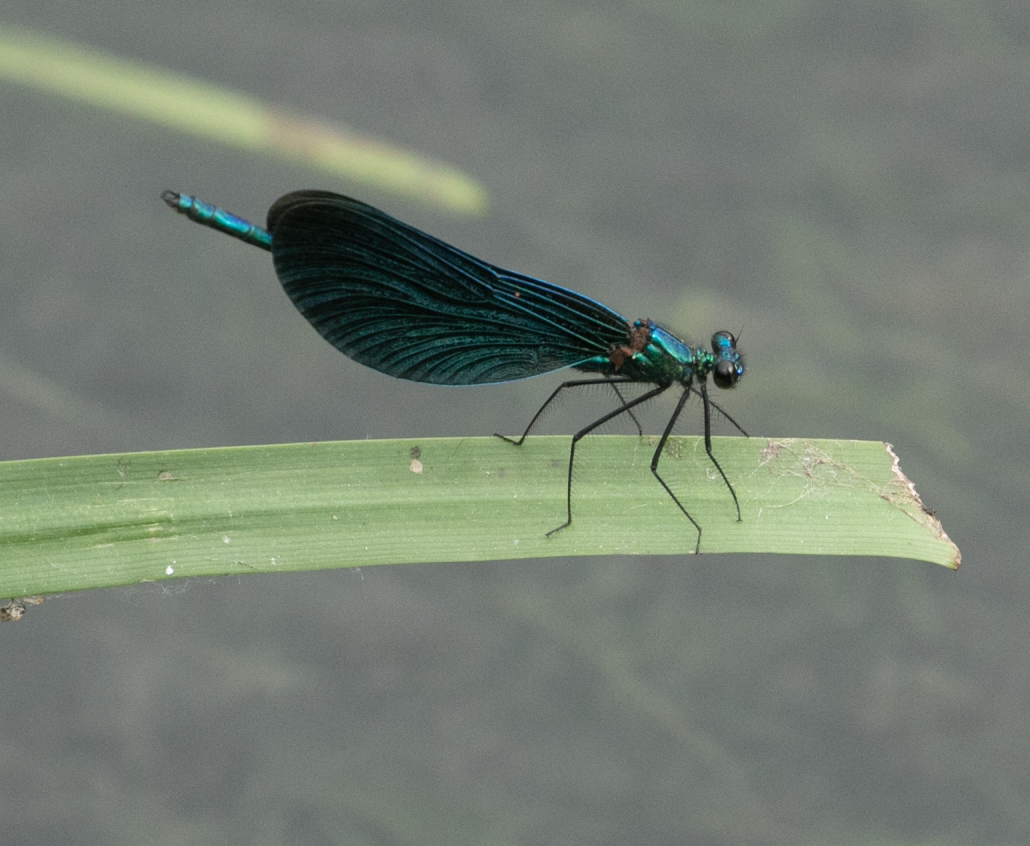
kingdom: Animalia
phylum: Arthropoda
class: Insecta
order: Odonata
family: Calopterygidae
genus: Calopteryx
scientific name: Calopteryx virgo
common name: Beautiful demoiselle
